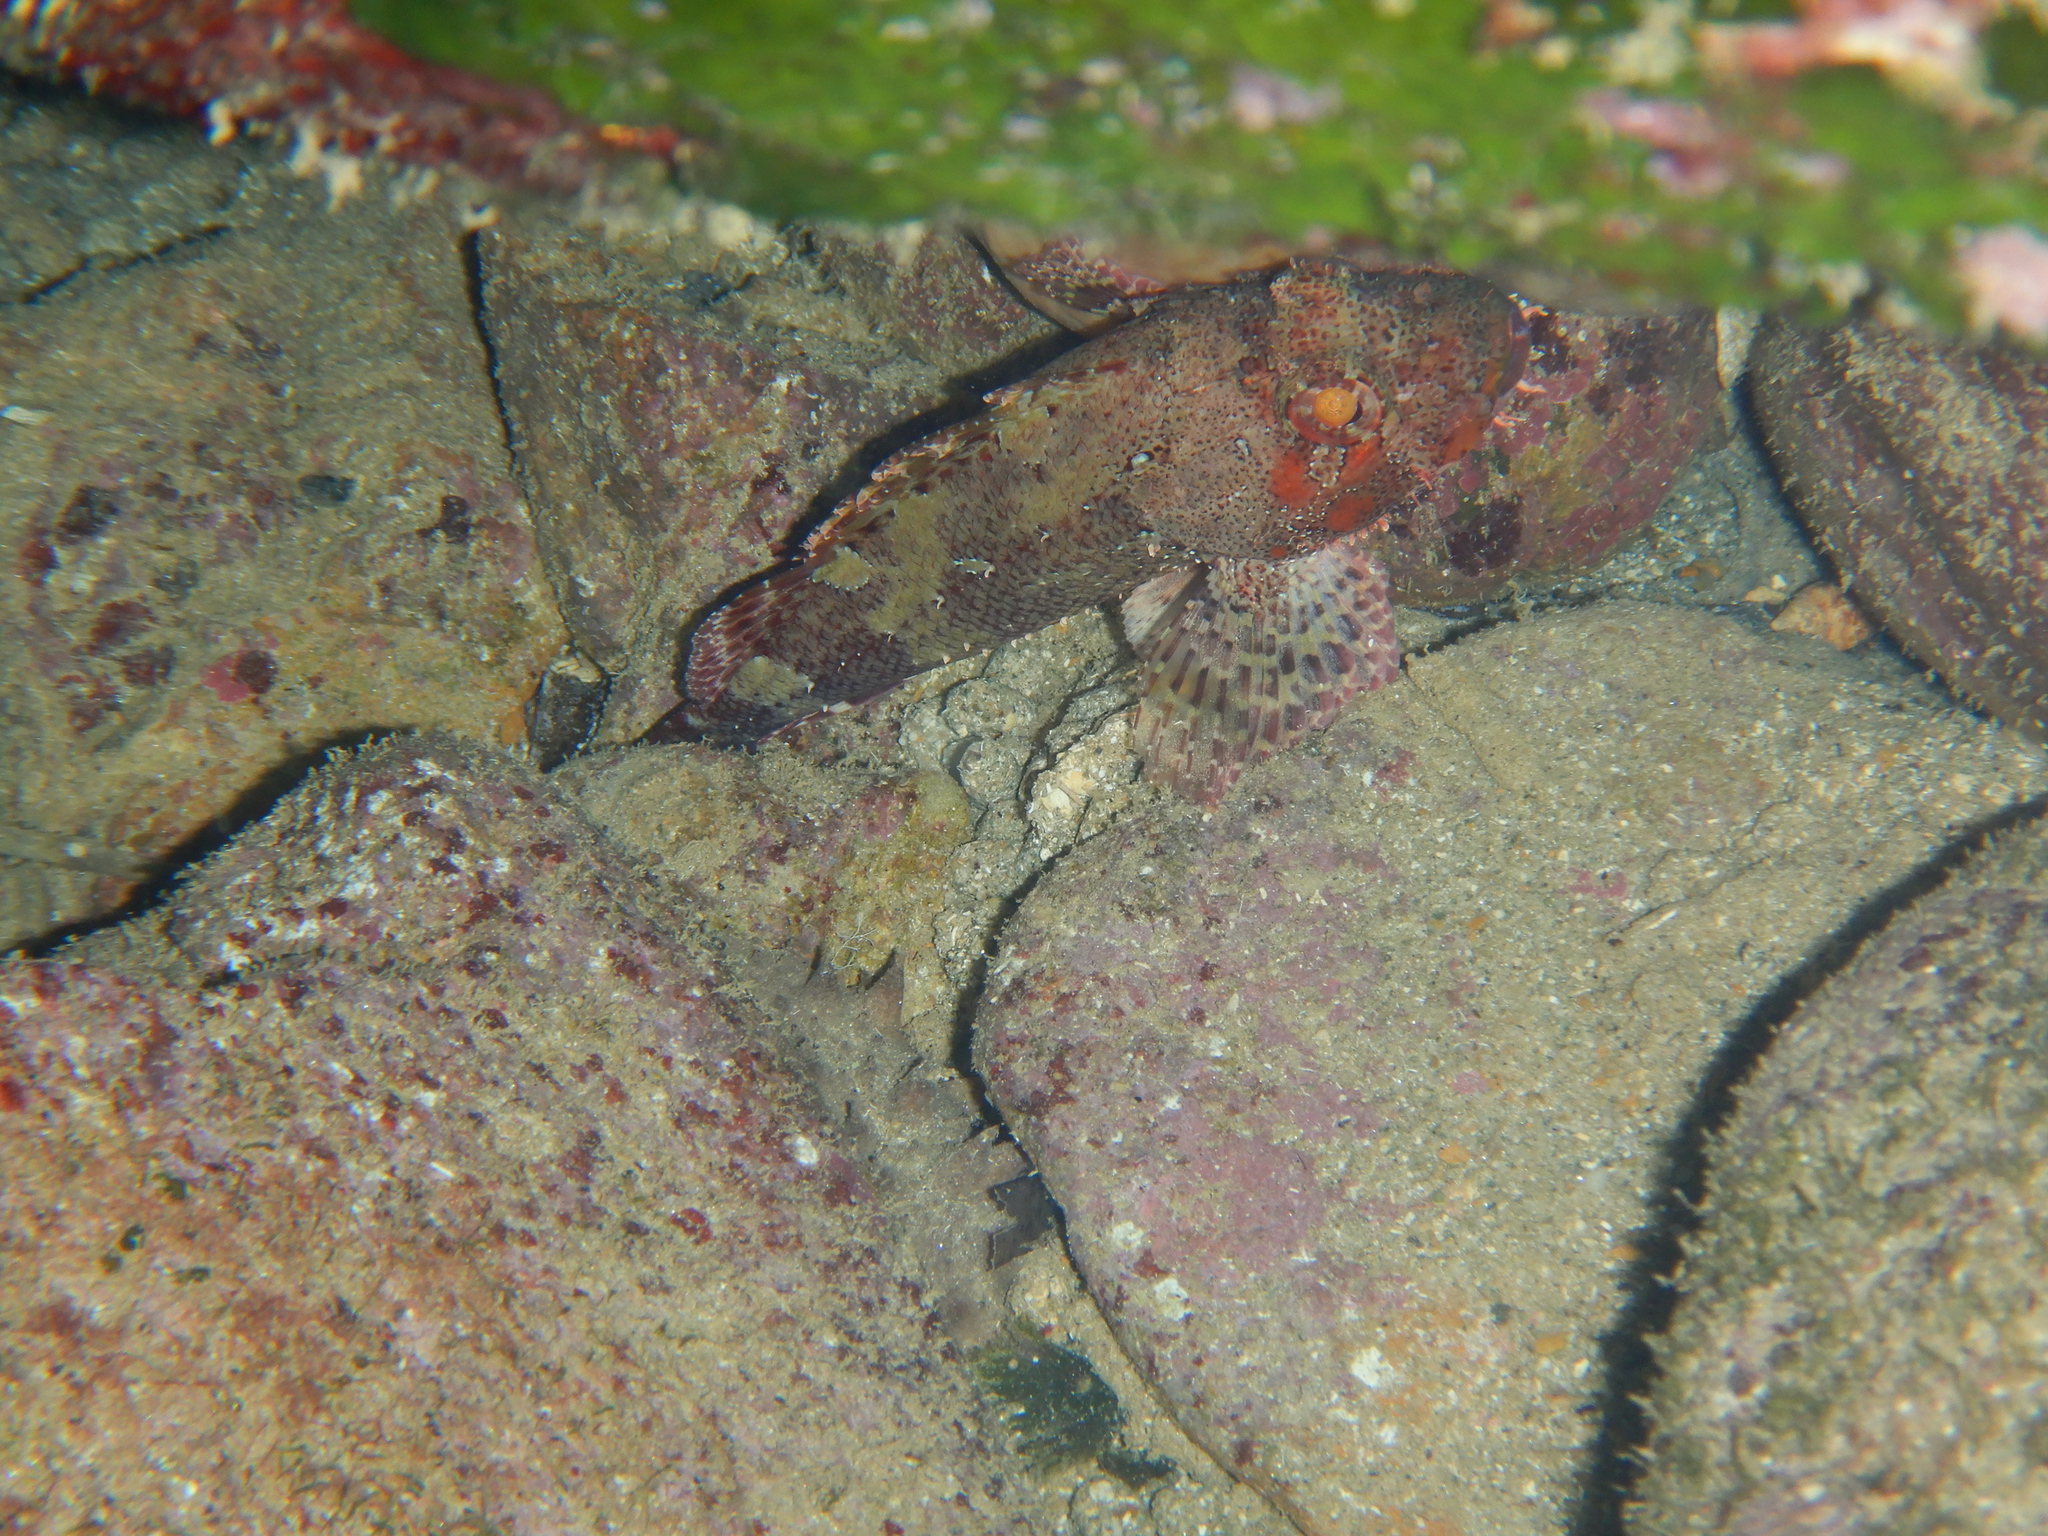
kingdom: Animalia
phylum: Chordata
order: Scorpaeniformes
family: Scorpaenidae
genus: Scorpaena
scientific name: Scorpaena maderensis
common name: Madeira rockfish
